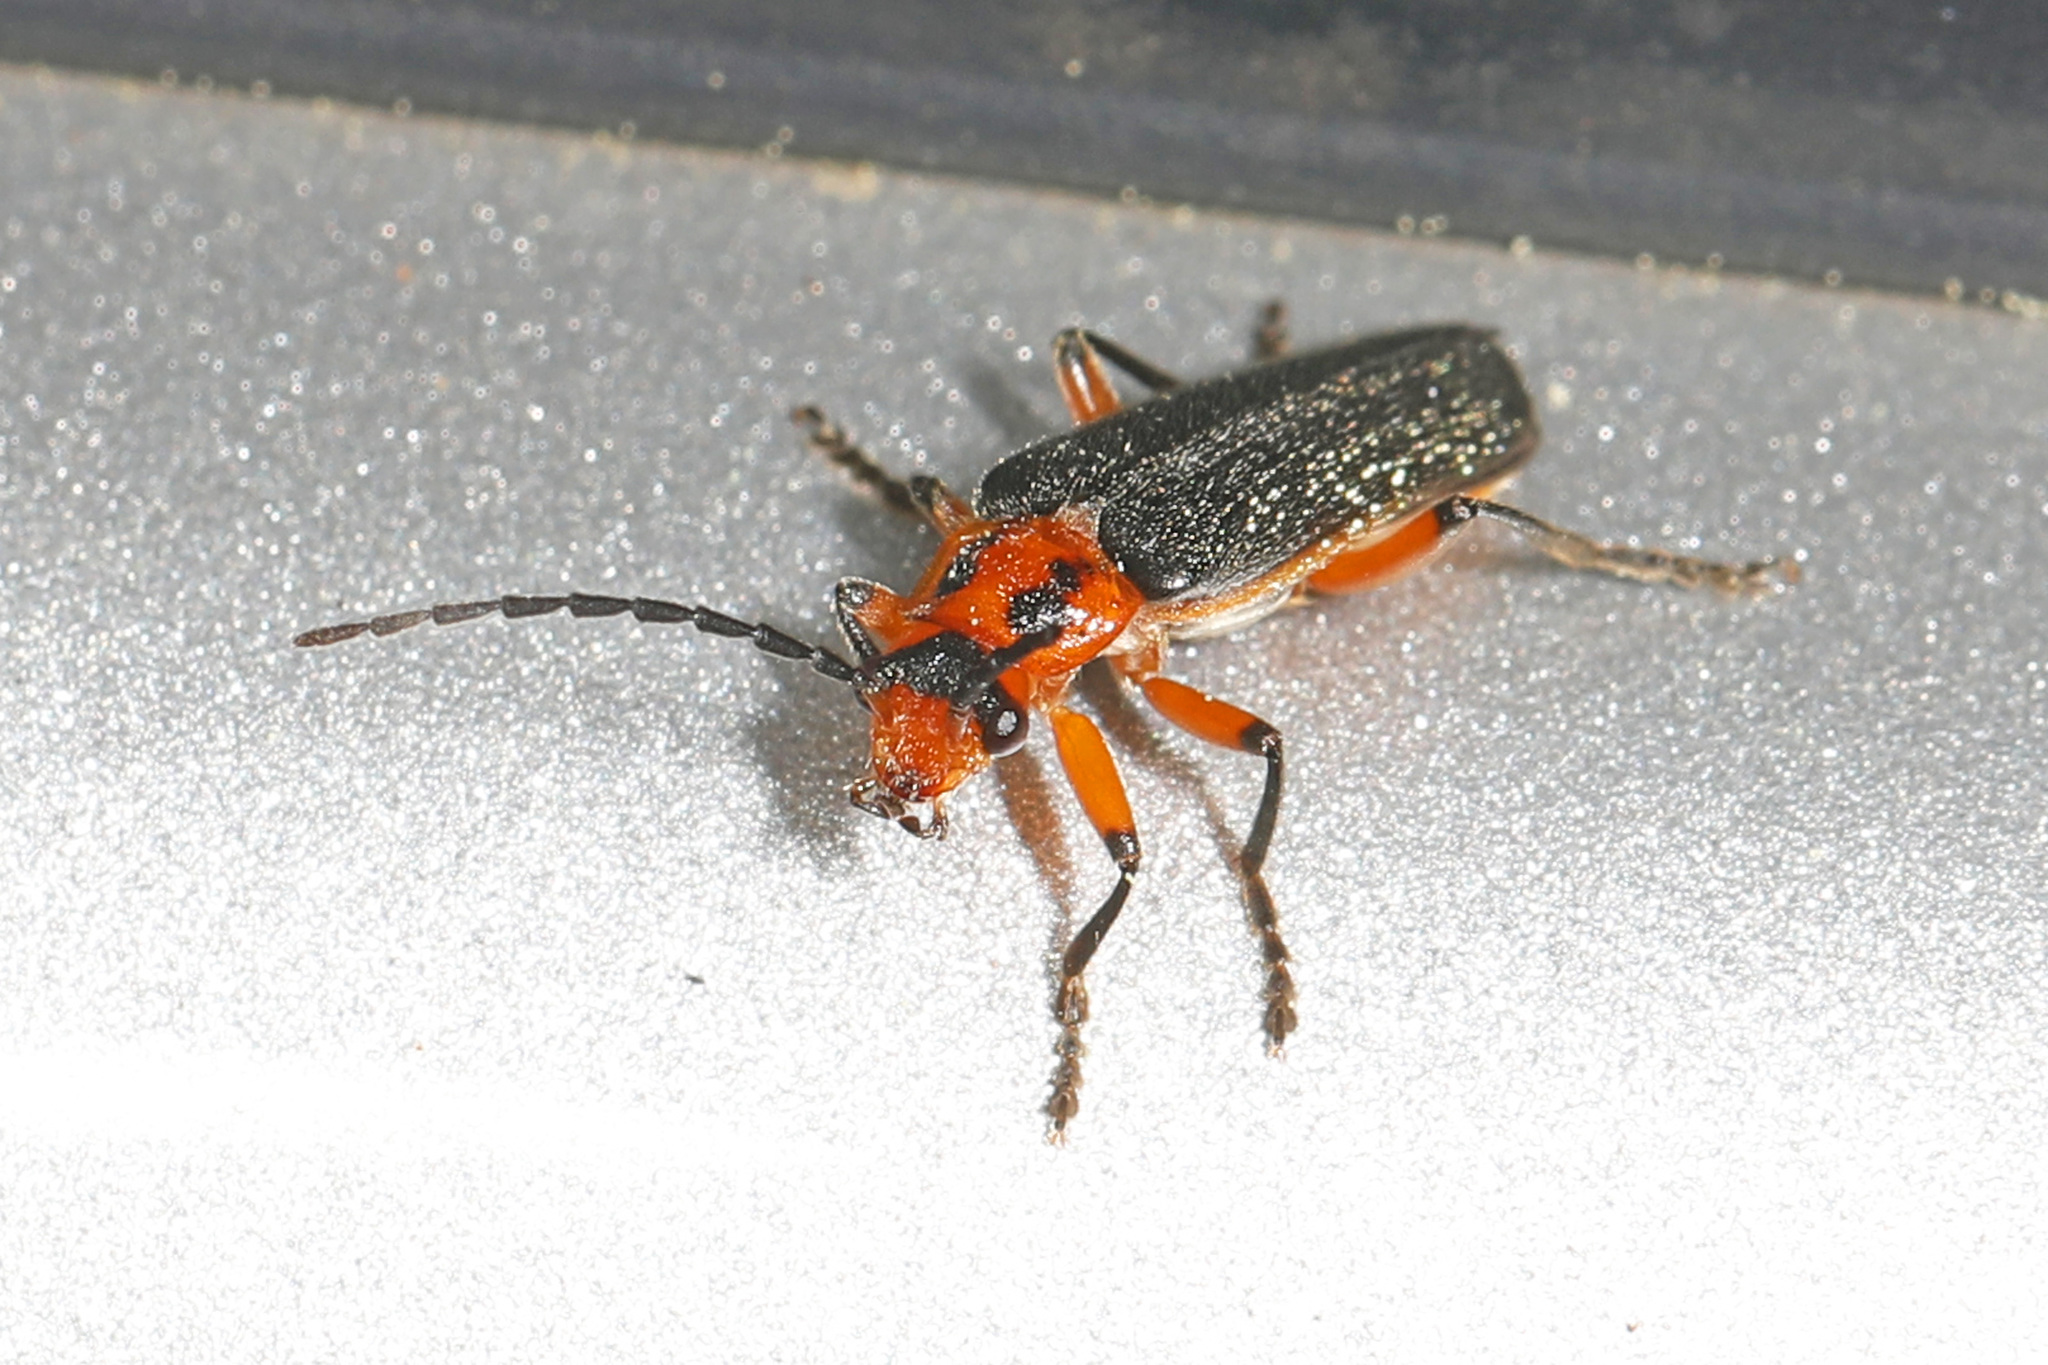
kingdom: Animalia
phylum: Arthropoda
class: Insecta
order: Coleoptera
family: Cantharidae
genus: Atalantycha
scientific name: Atalantycha bilineata
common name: Two-lined leatherwing
